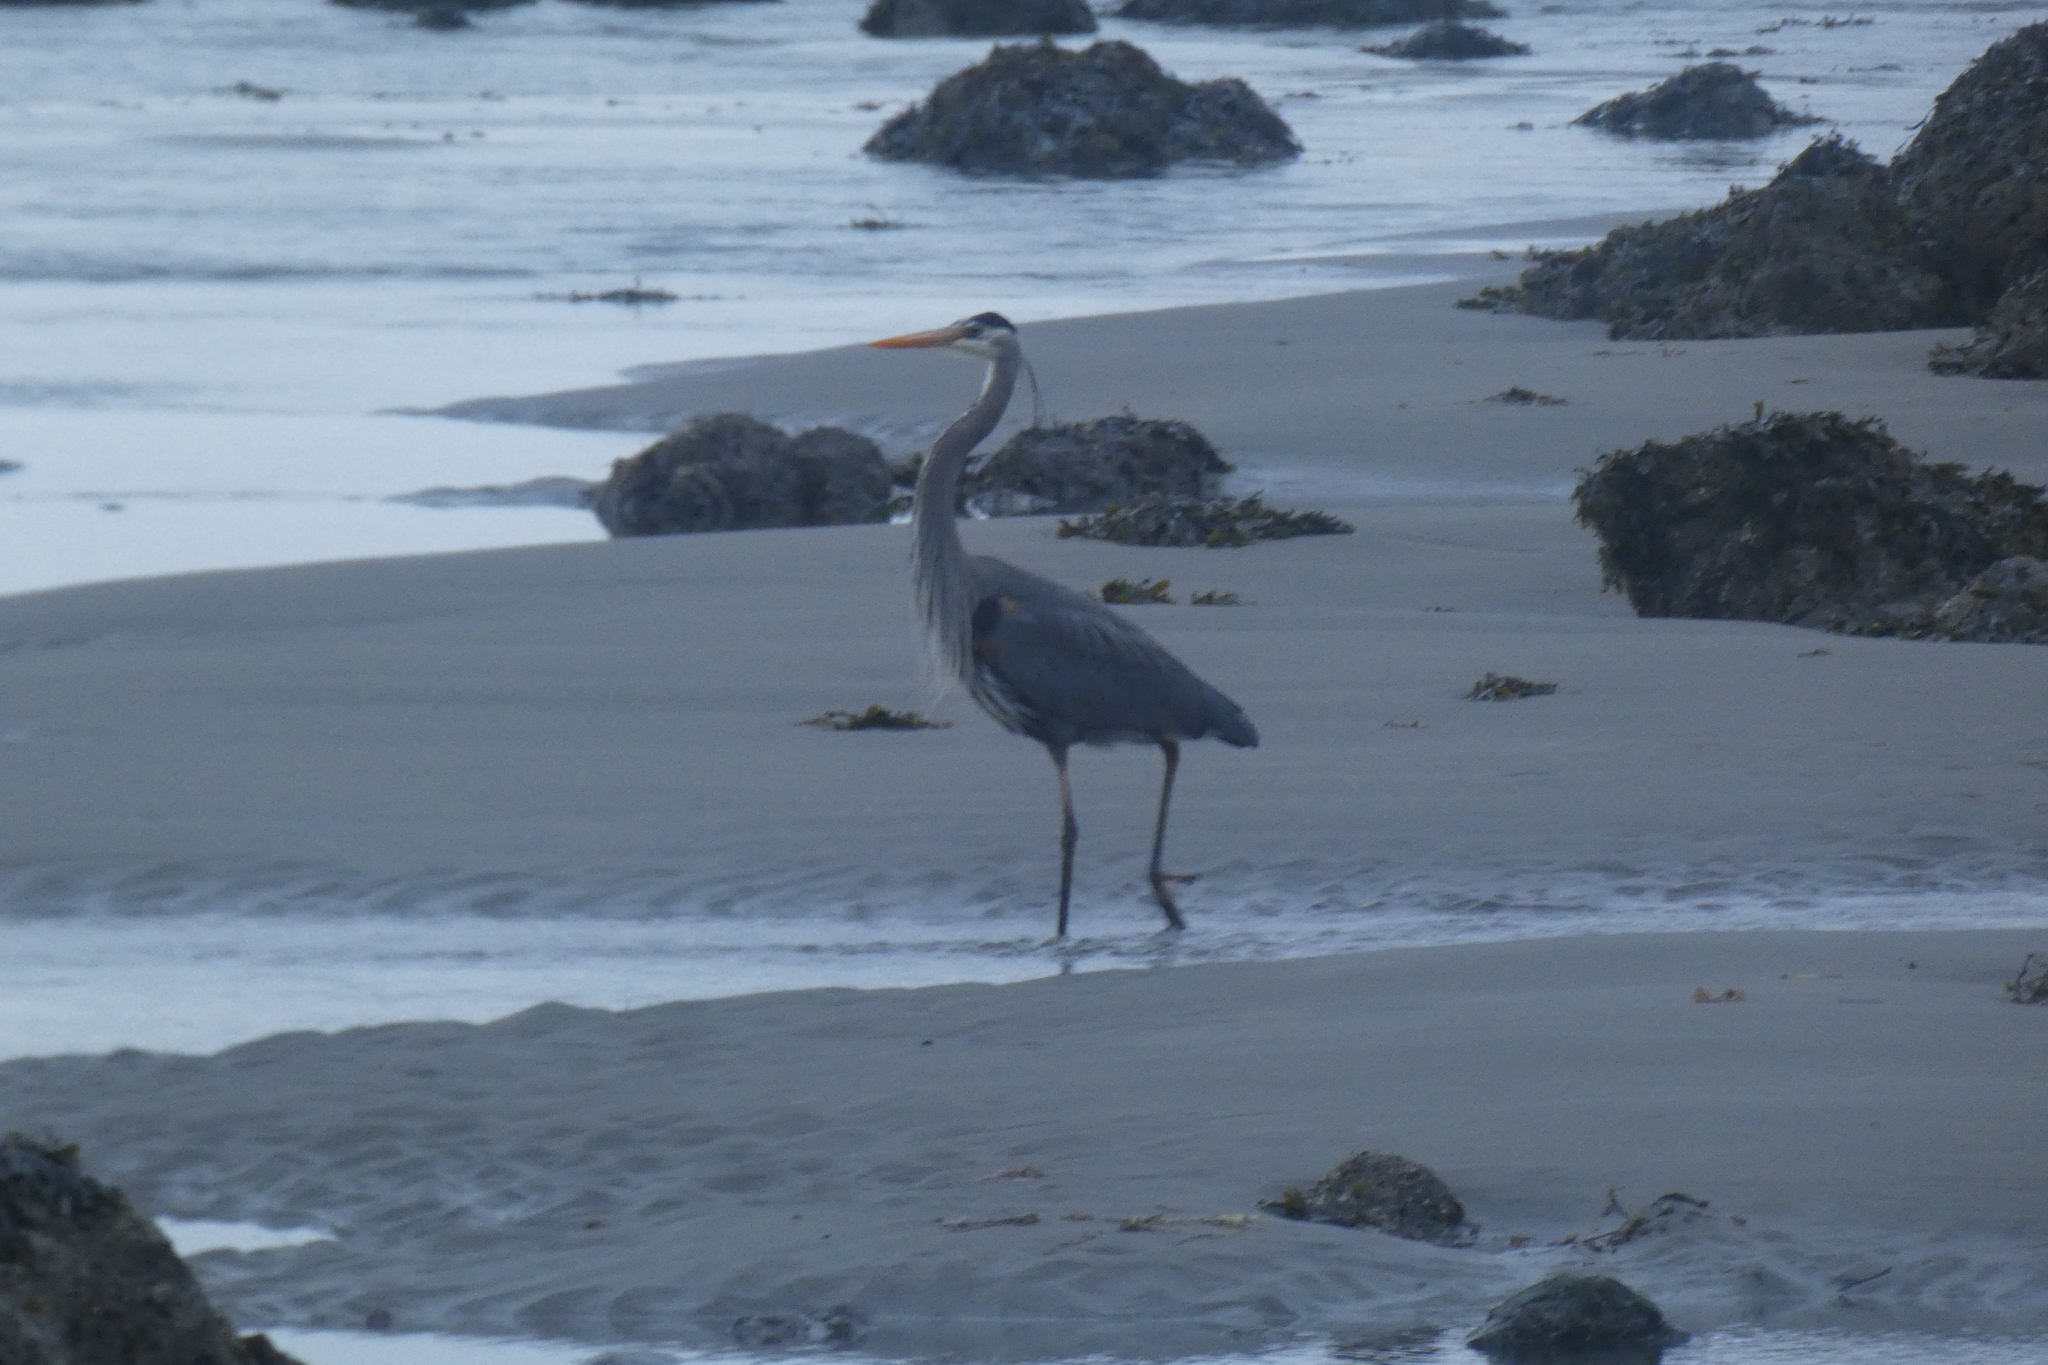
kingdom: Animalia
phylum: Chordata
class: Aves
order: Pelecaniformes
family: Ardeidae
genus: Ardea
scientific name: Ardea herodias
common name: Great blue heron
